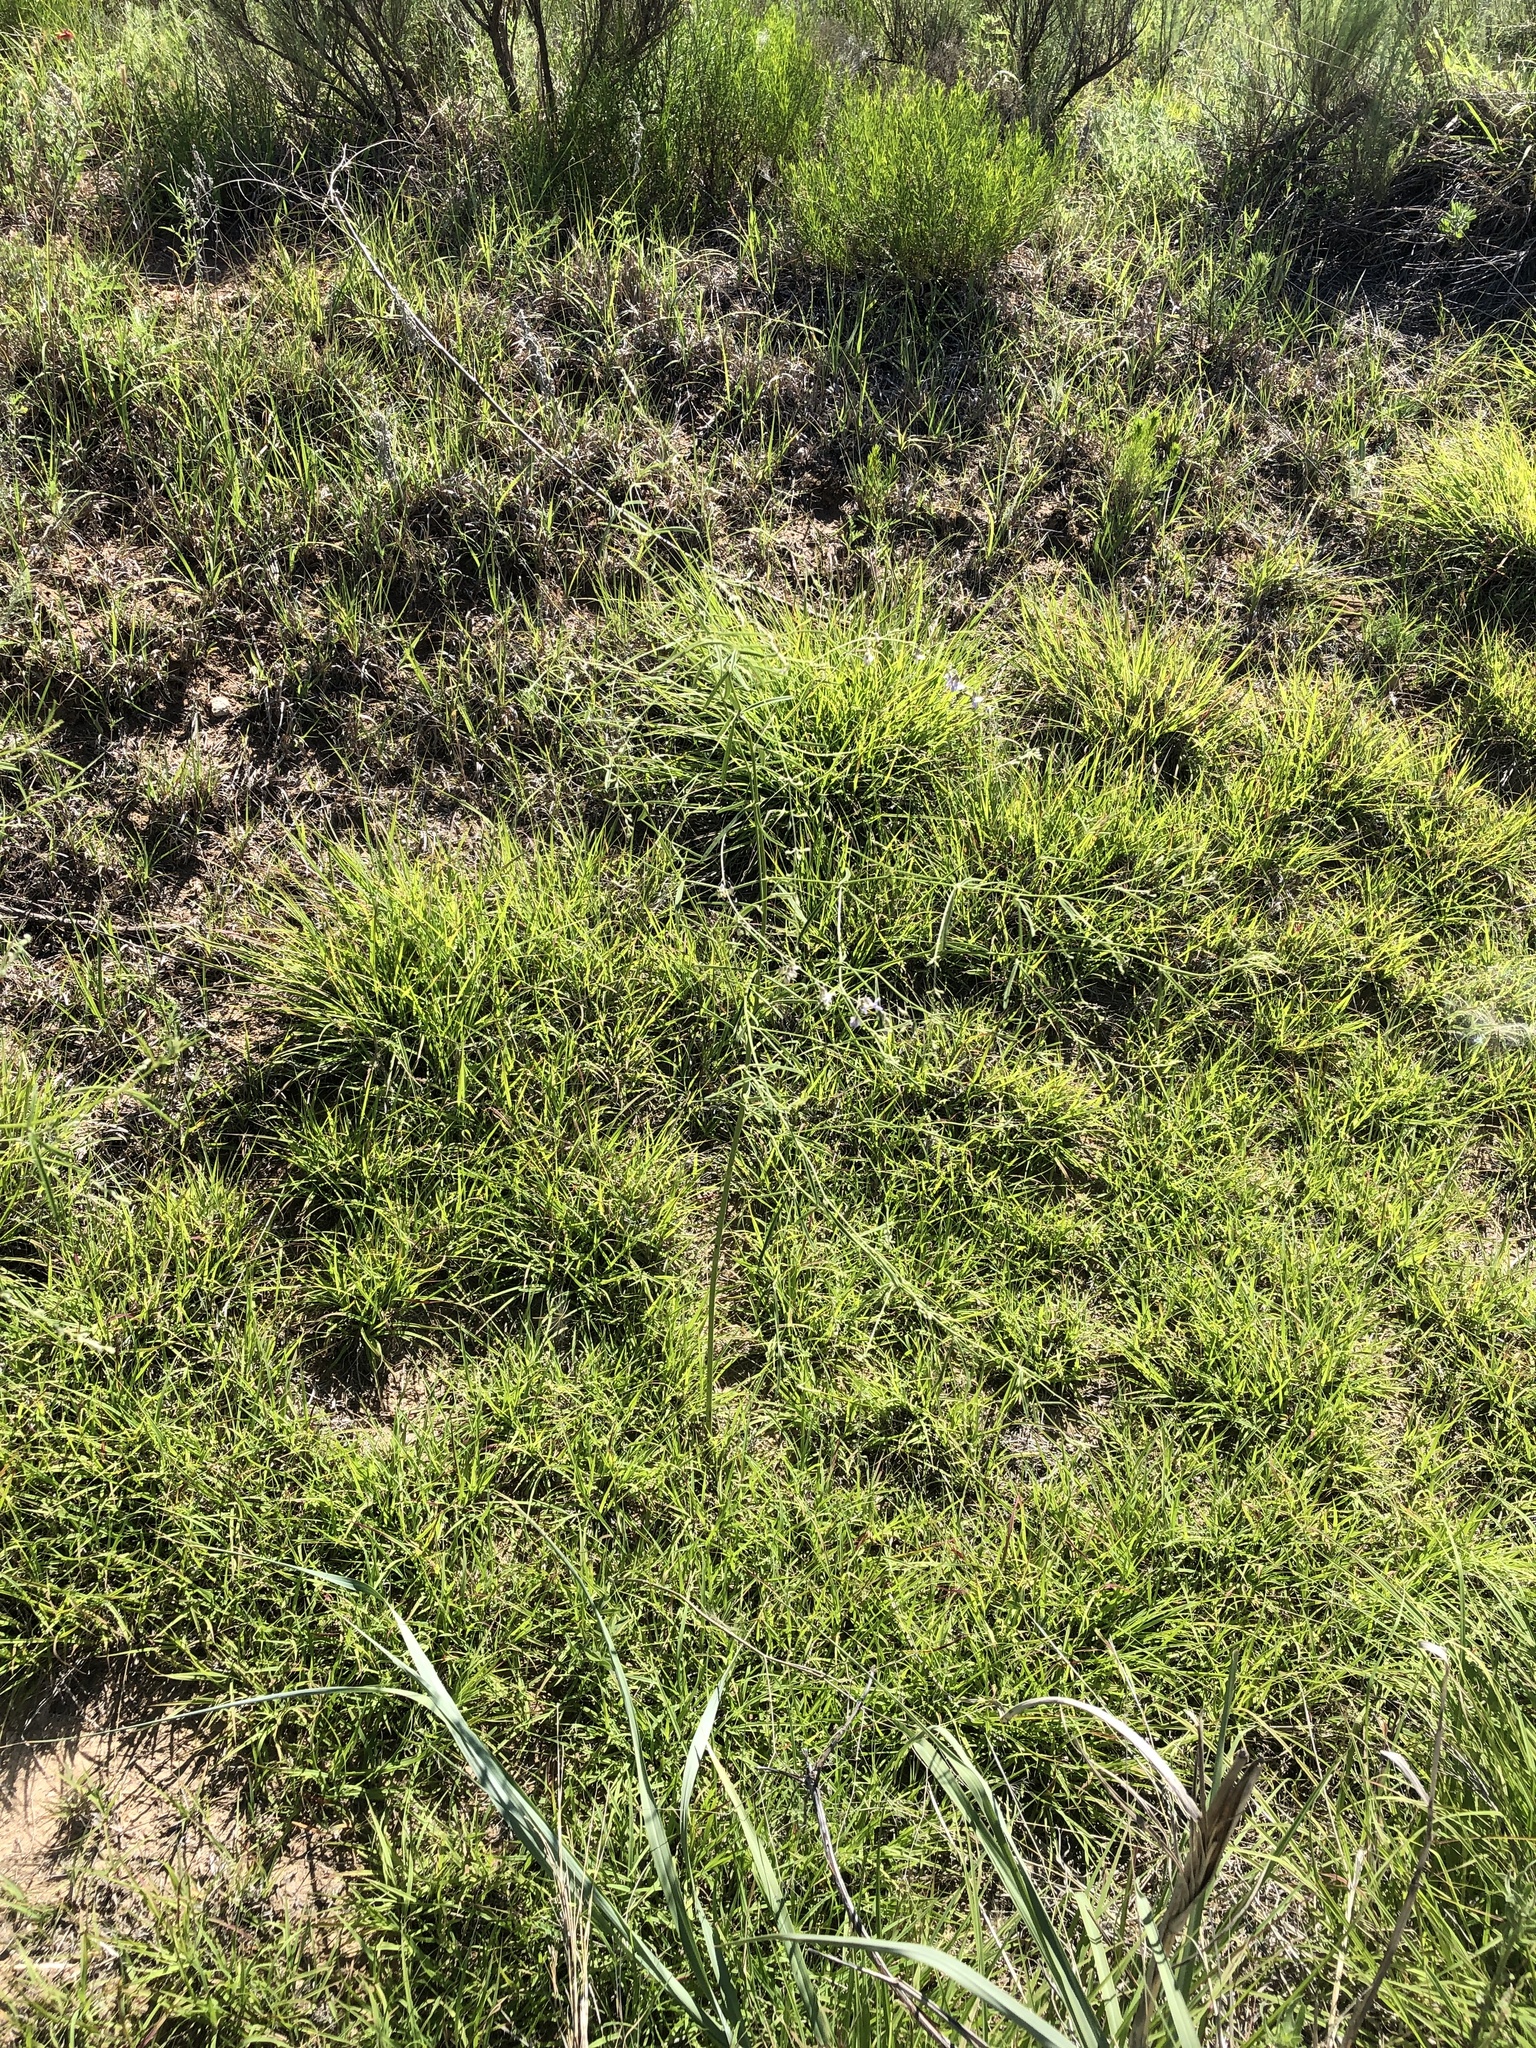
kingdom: Plantae
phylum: Tracheophyta
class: Magnoliopsida
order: Fabales
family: Fabaceae
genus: Pediomelum
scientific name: Pediomelum linearifolium
